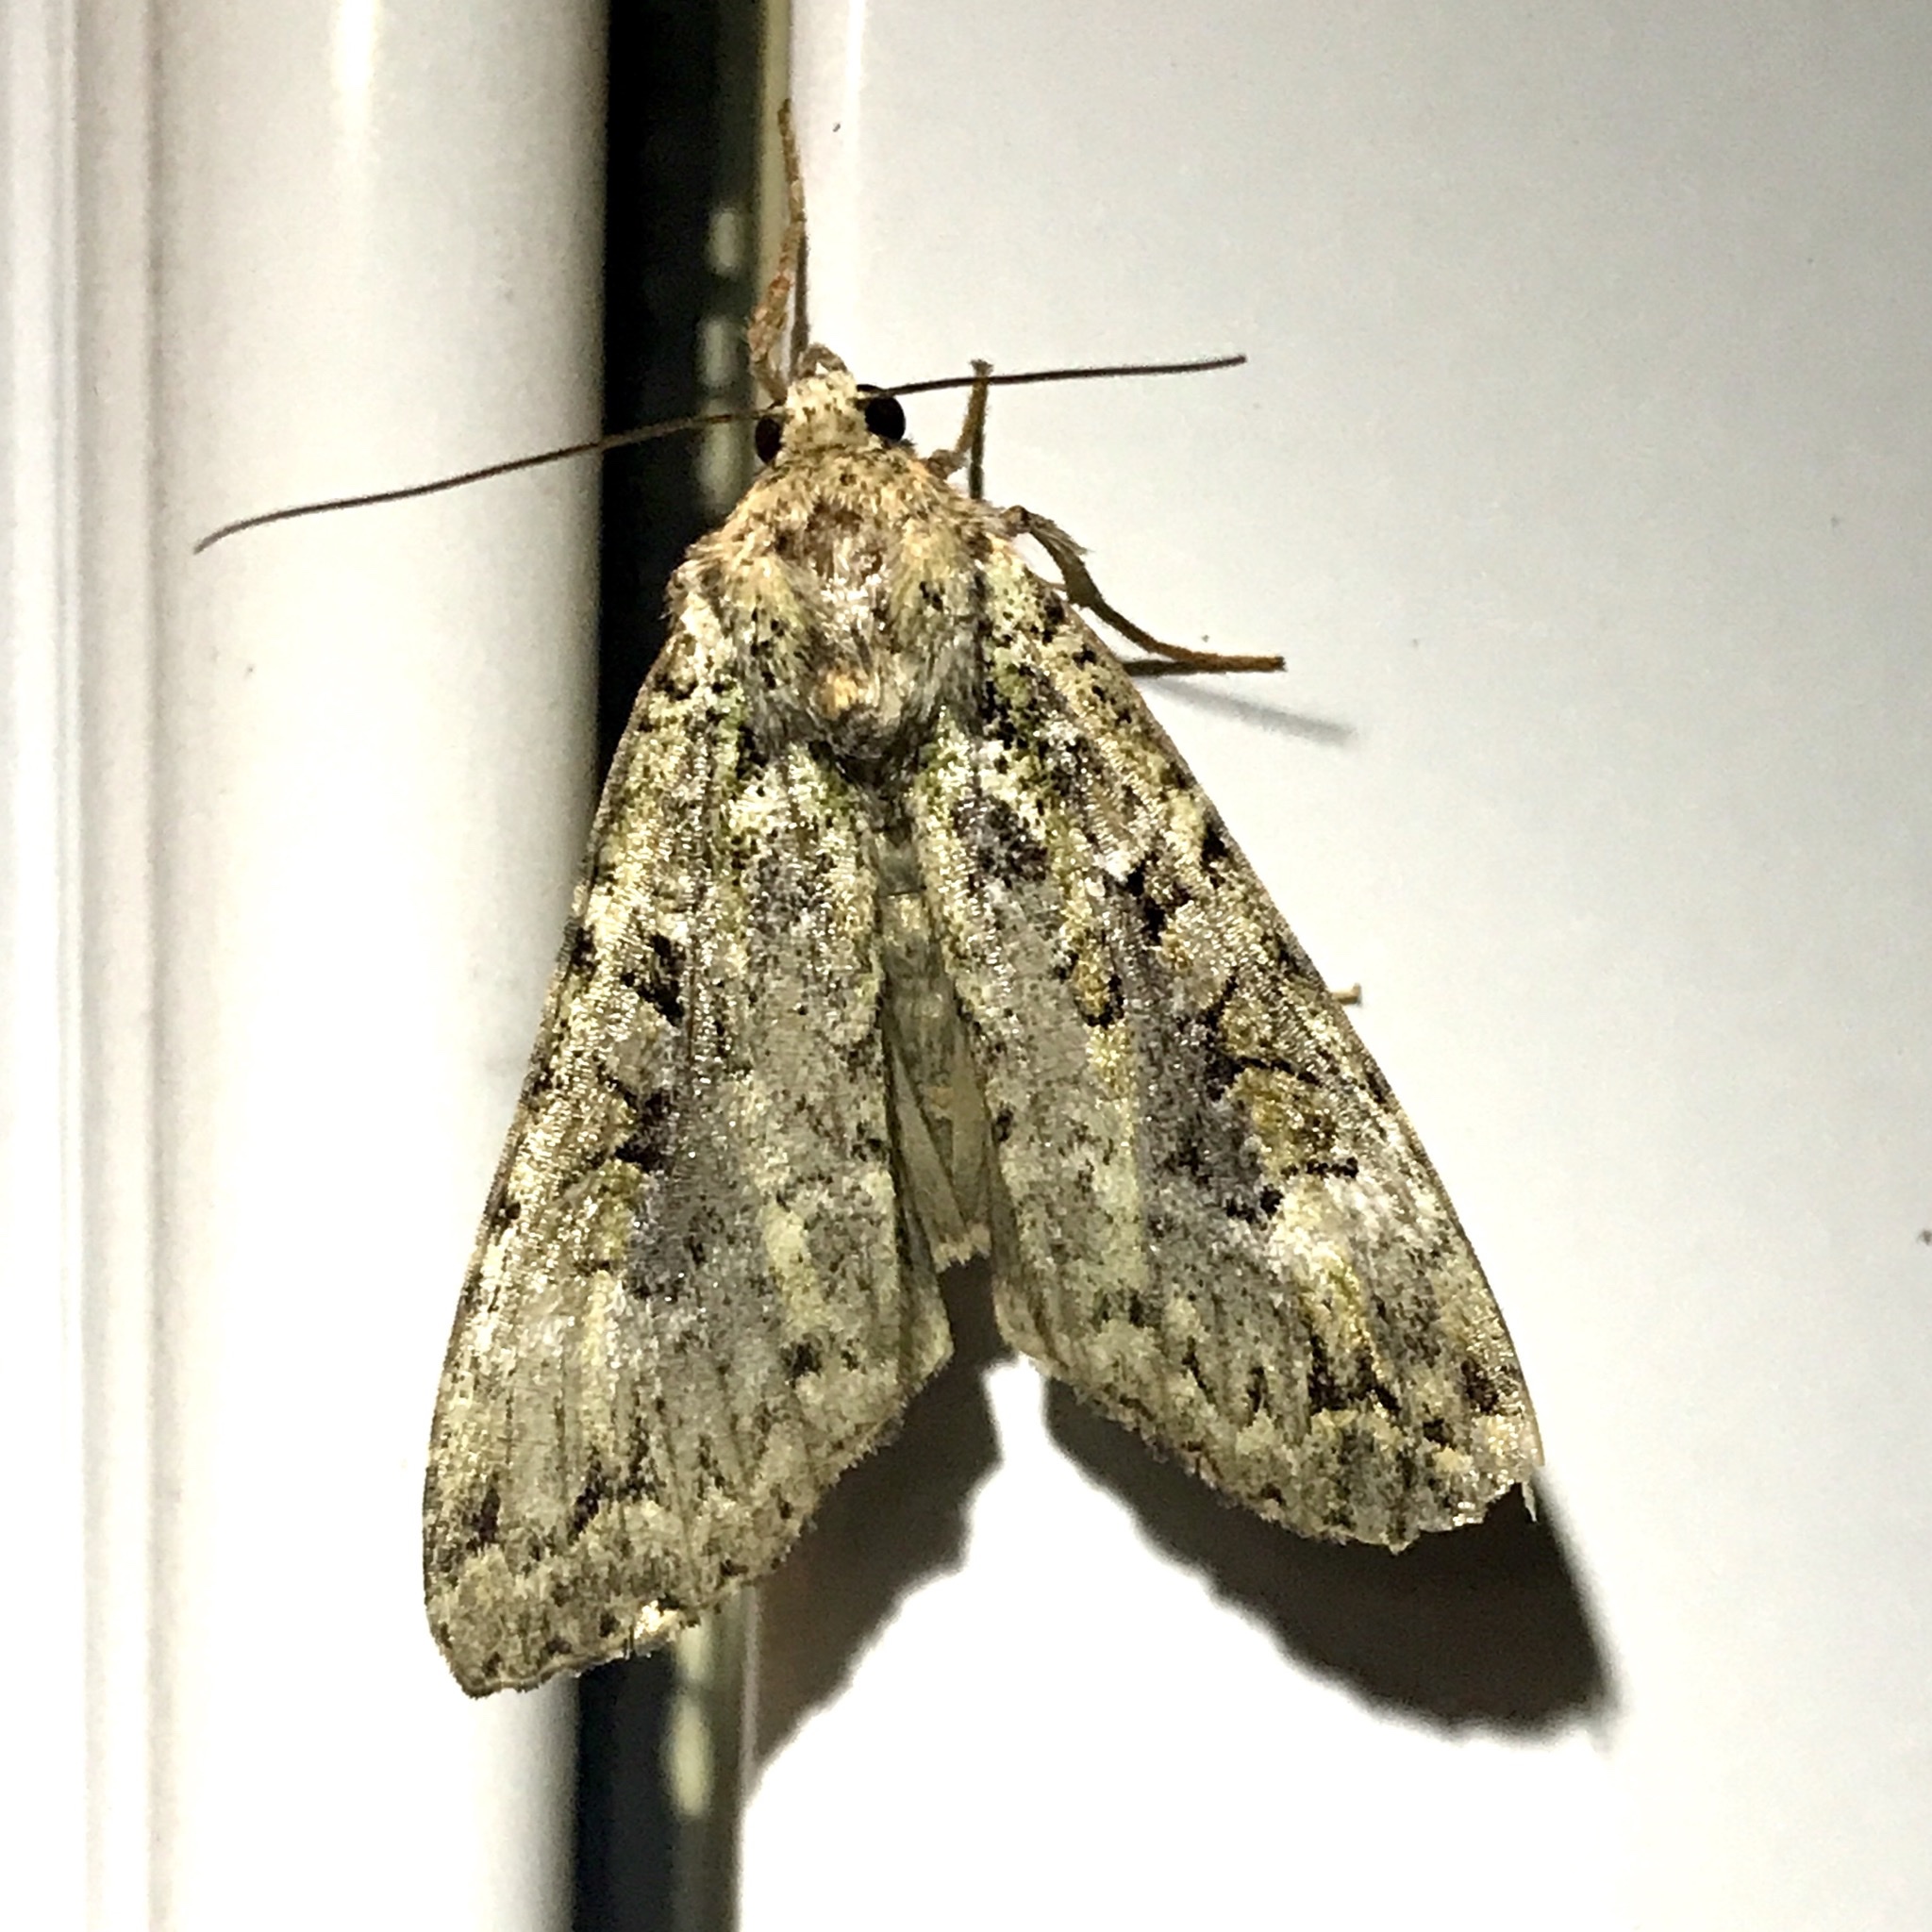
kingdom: Animalia
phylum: Arthropoda
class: Insecta
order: Lepidoptera
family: Noctuidae
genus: Anaplectoides
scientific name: Anaplectoides prasina
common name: Green arches
